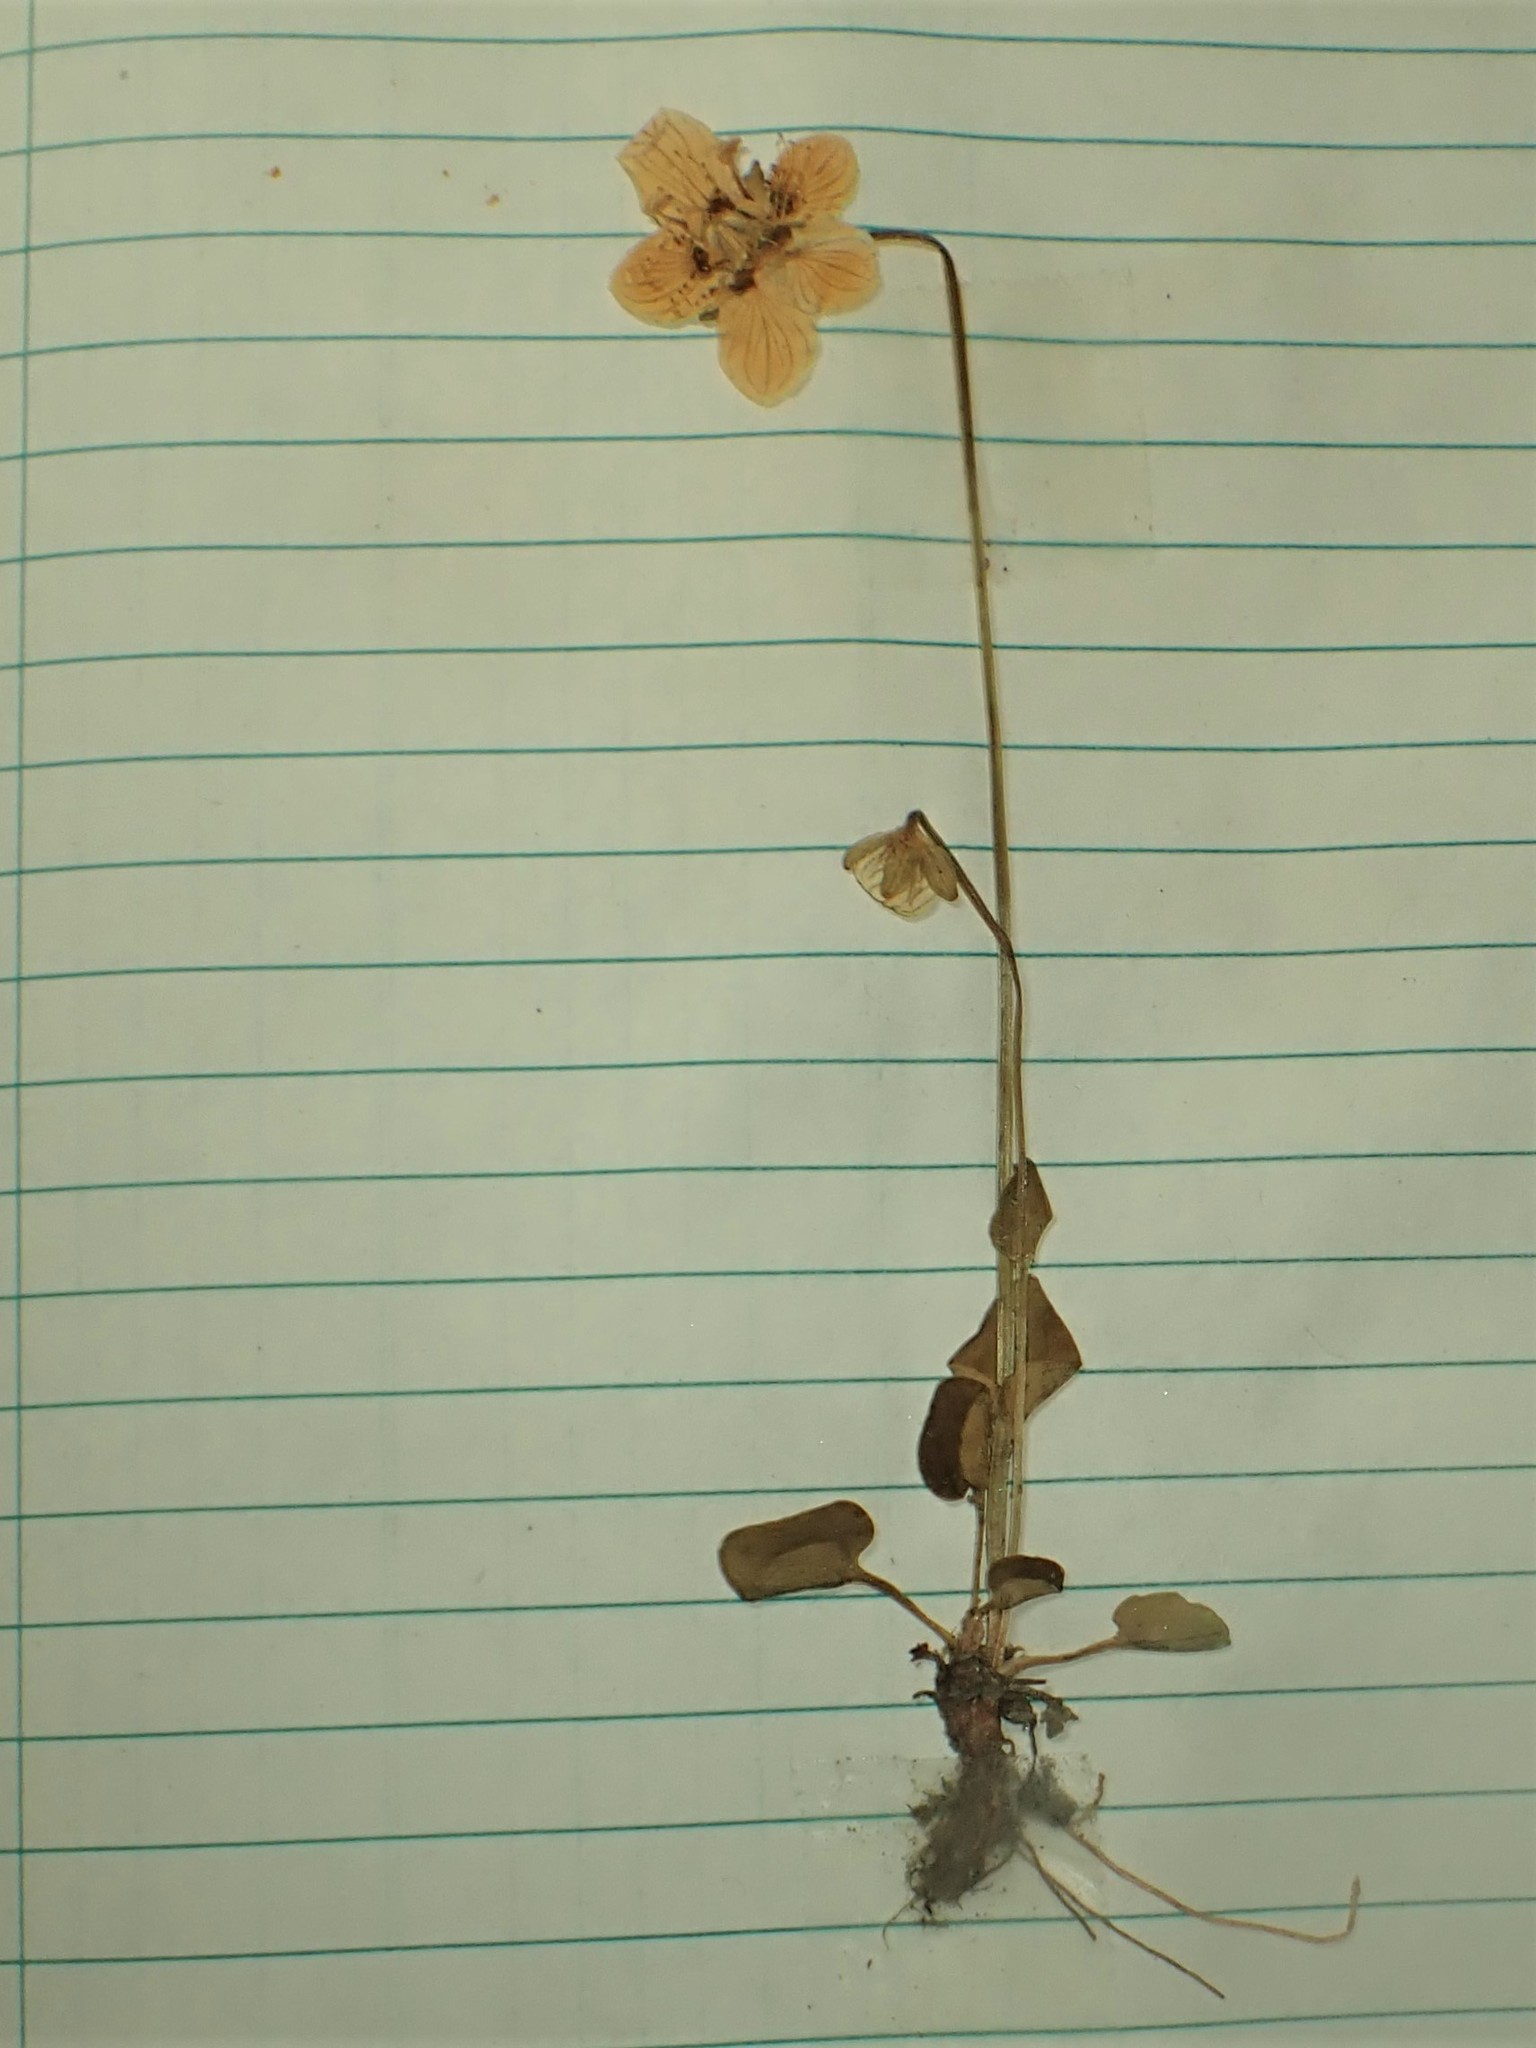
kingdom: Plantae
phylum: Tracheophyta
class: Magnoliopsida
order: Celastrales
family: Parnassiaceae
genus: Parnassia
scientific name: Parnassia palustris
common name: Grass-of-parnassus
